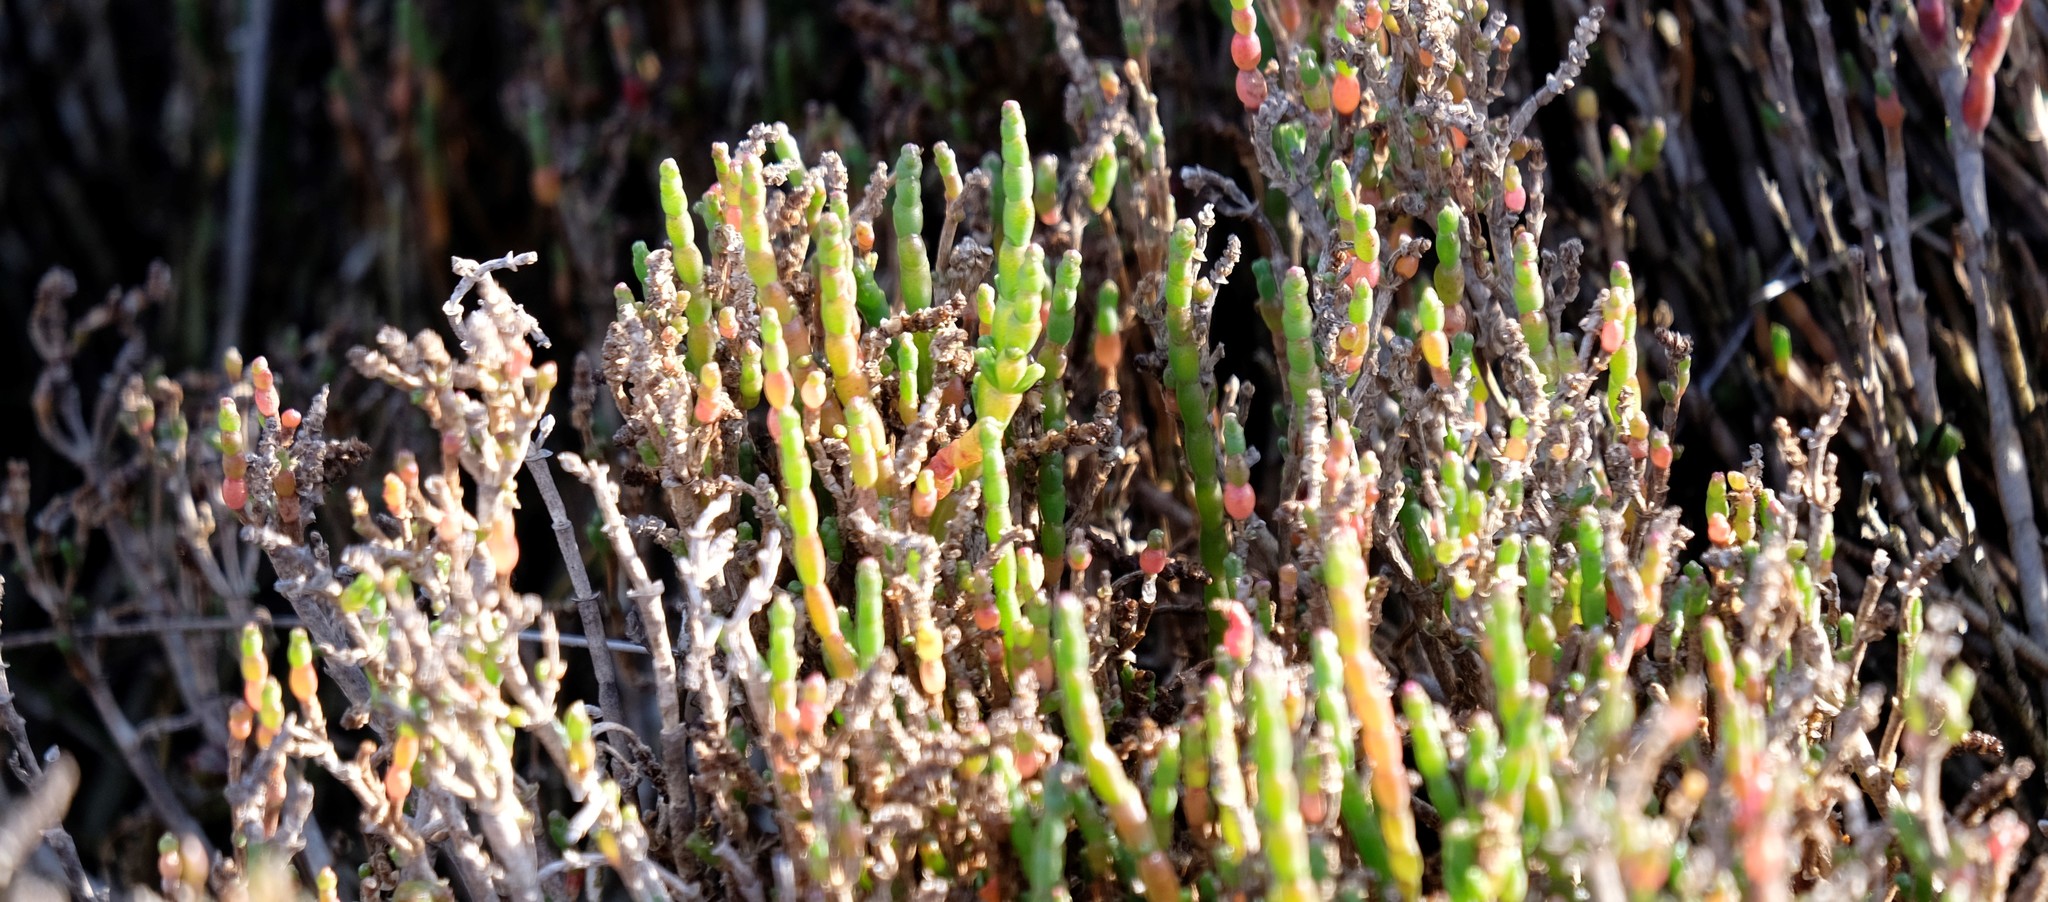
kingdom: Plantae
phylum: Tracheophyta
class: Magnoliopsida
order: Caryophyllales
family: Amaranthaceae
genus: Salicornia
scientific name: Salicornia quinqueflora
